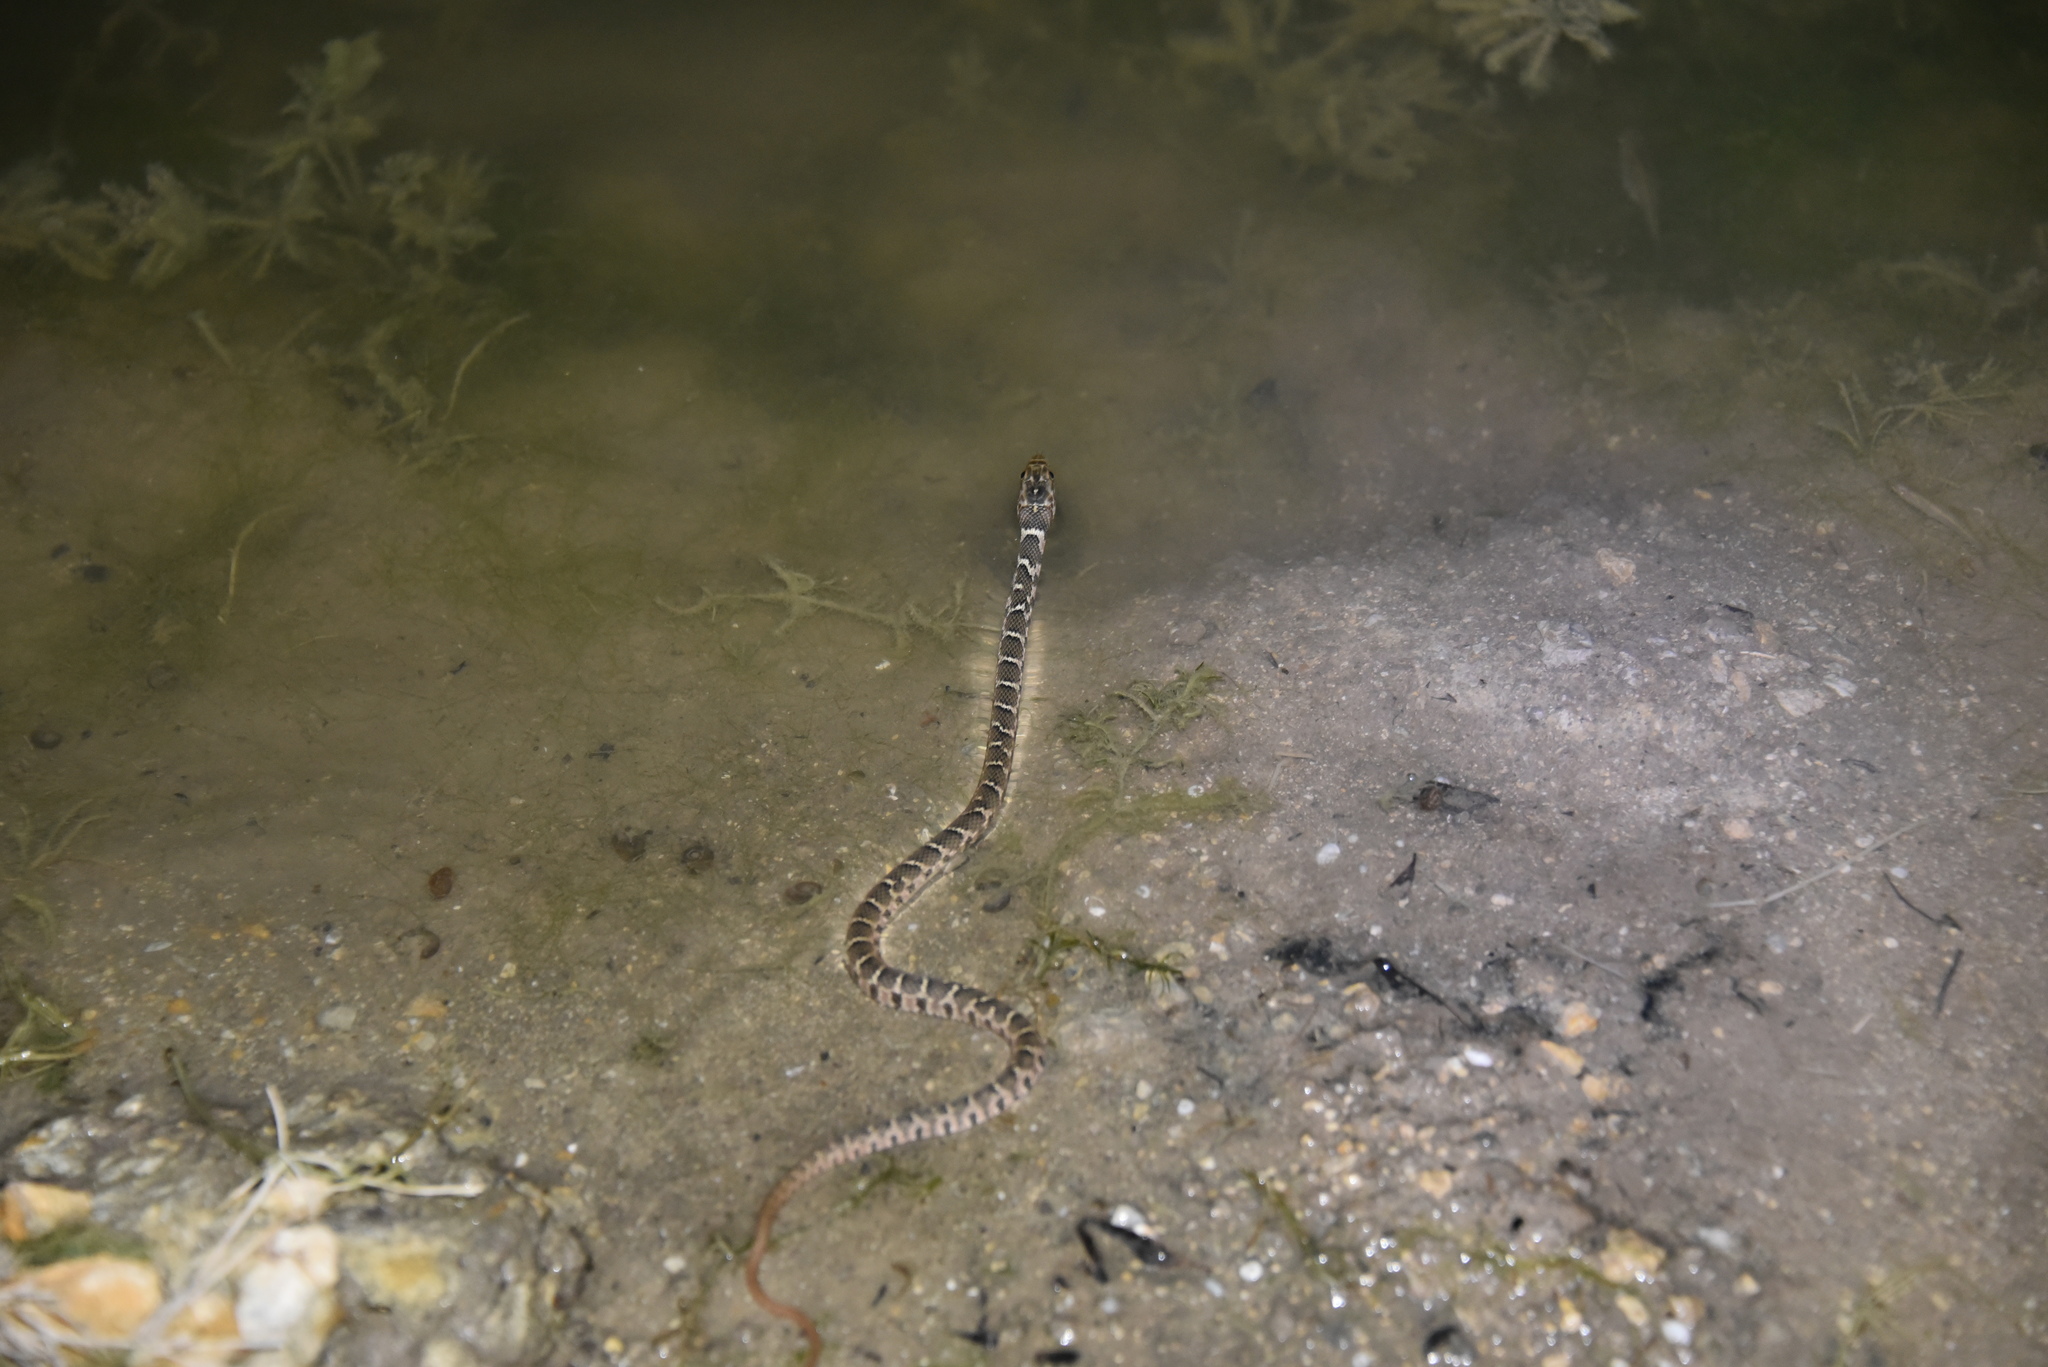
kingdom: Animalia
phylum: Chordata
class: Squamata
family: Colubridae
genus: Nerodia
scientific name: Nerodia erythrogaster
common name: Plainbelly water snake
